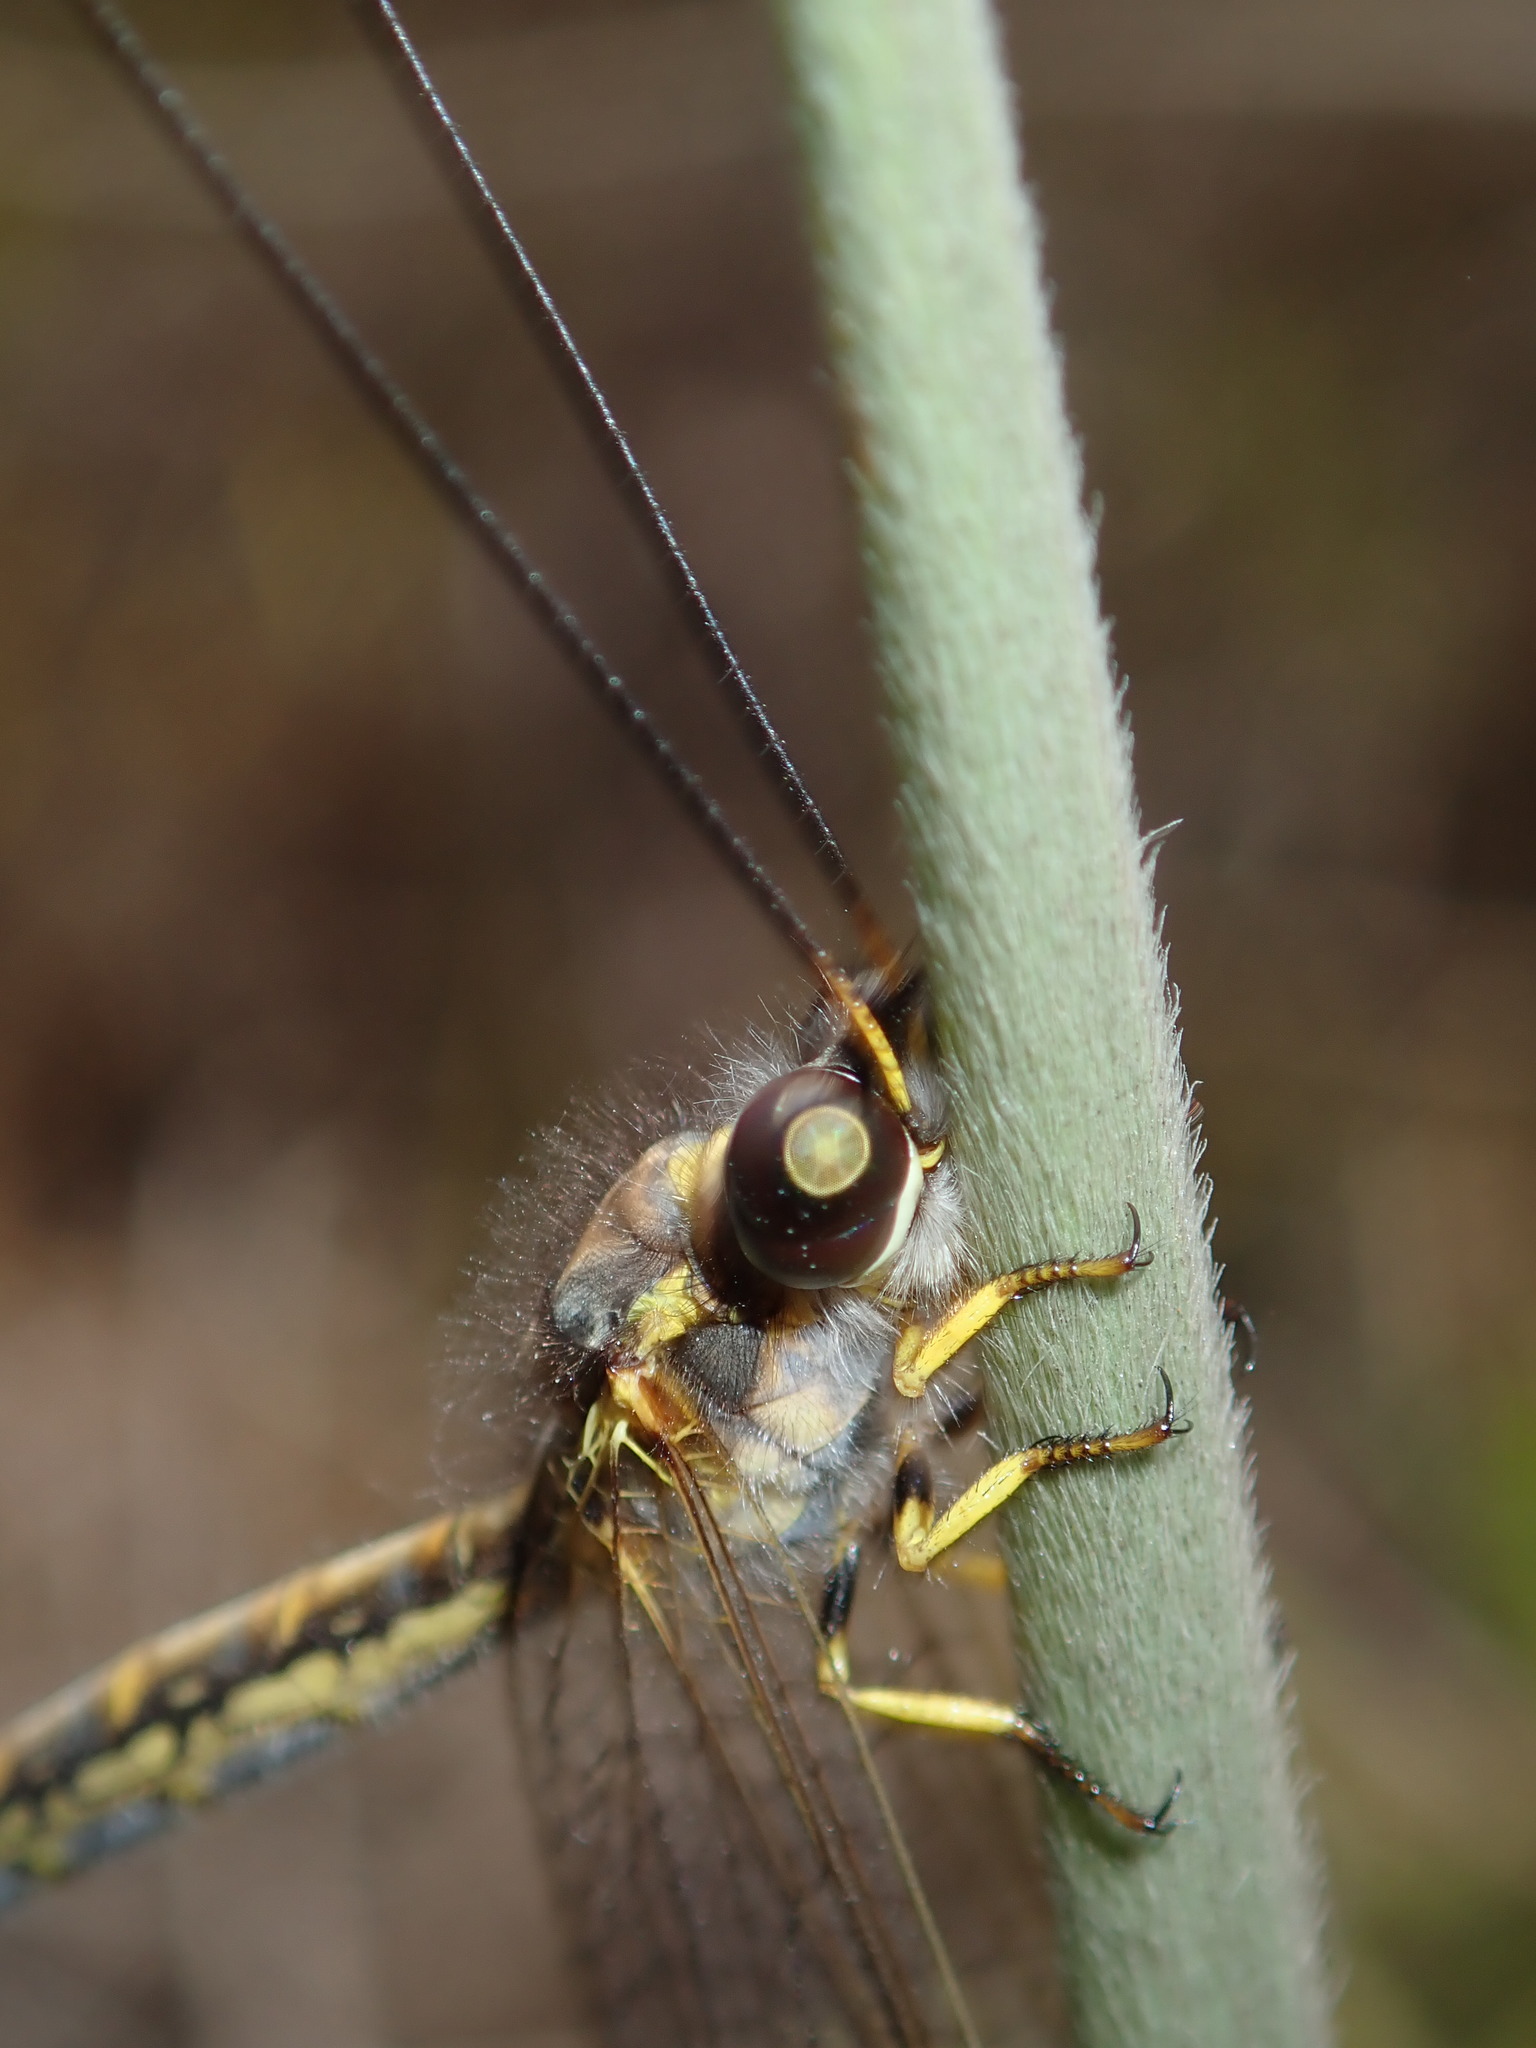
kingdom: Animalia
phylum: Arthropoda
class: Insecta
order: Neuroptera
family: Ascalaphidae
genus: Suhpalacsa
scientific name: Suhpalacsa flavipes
